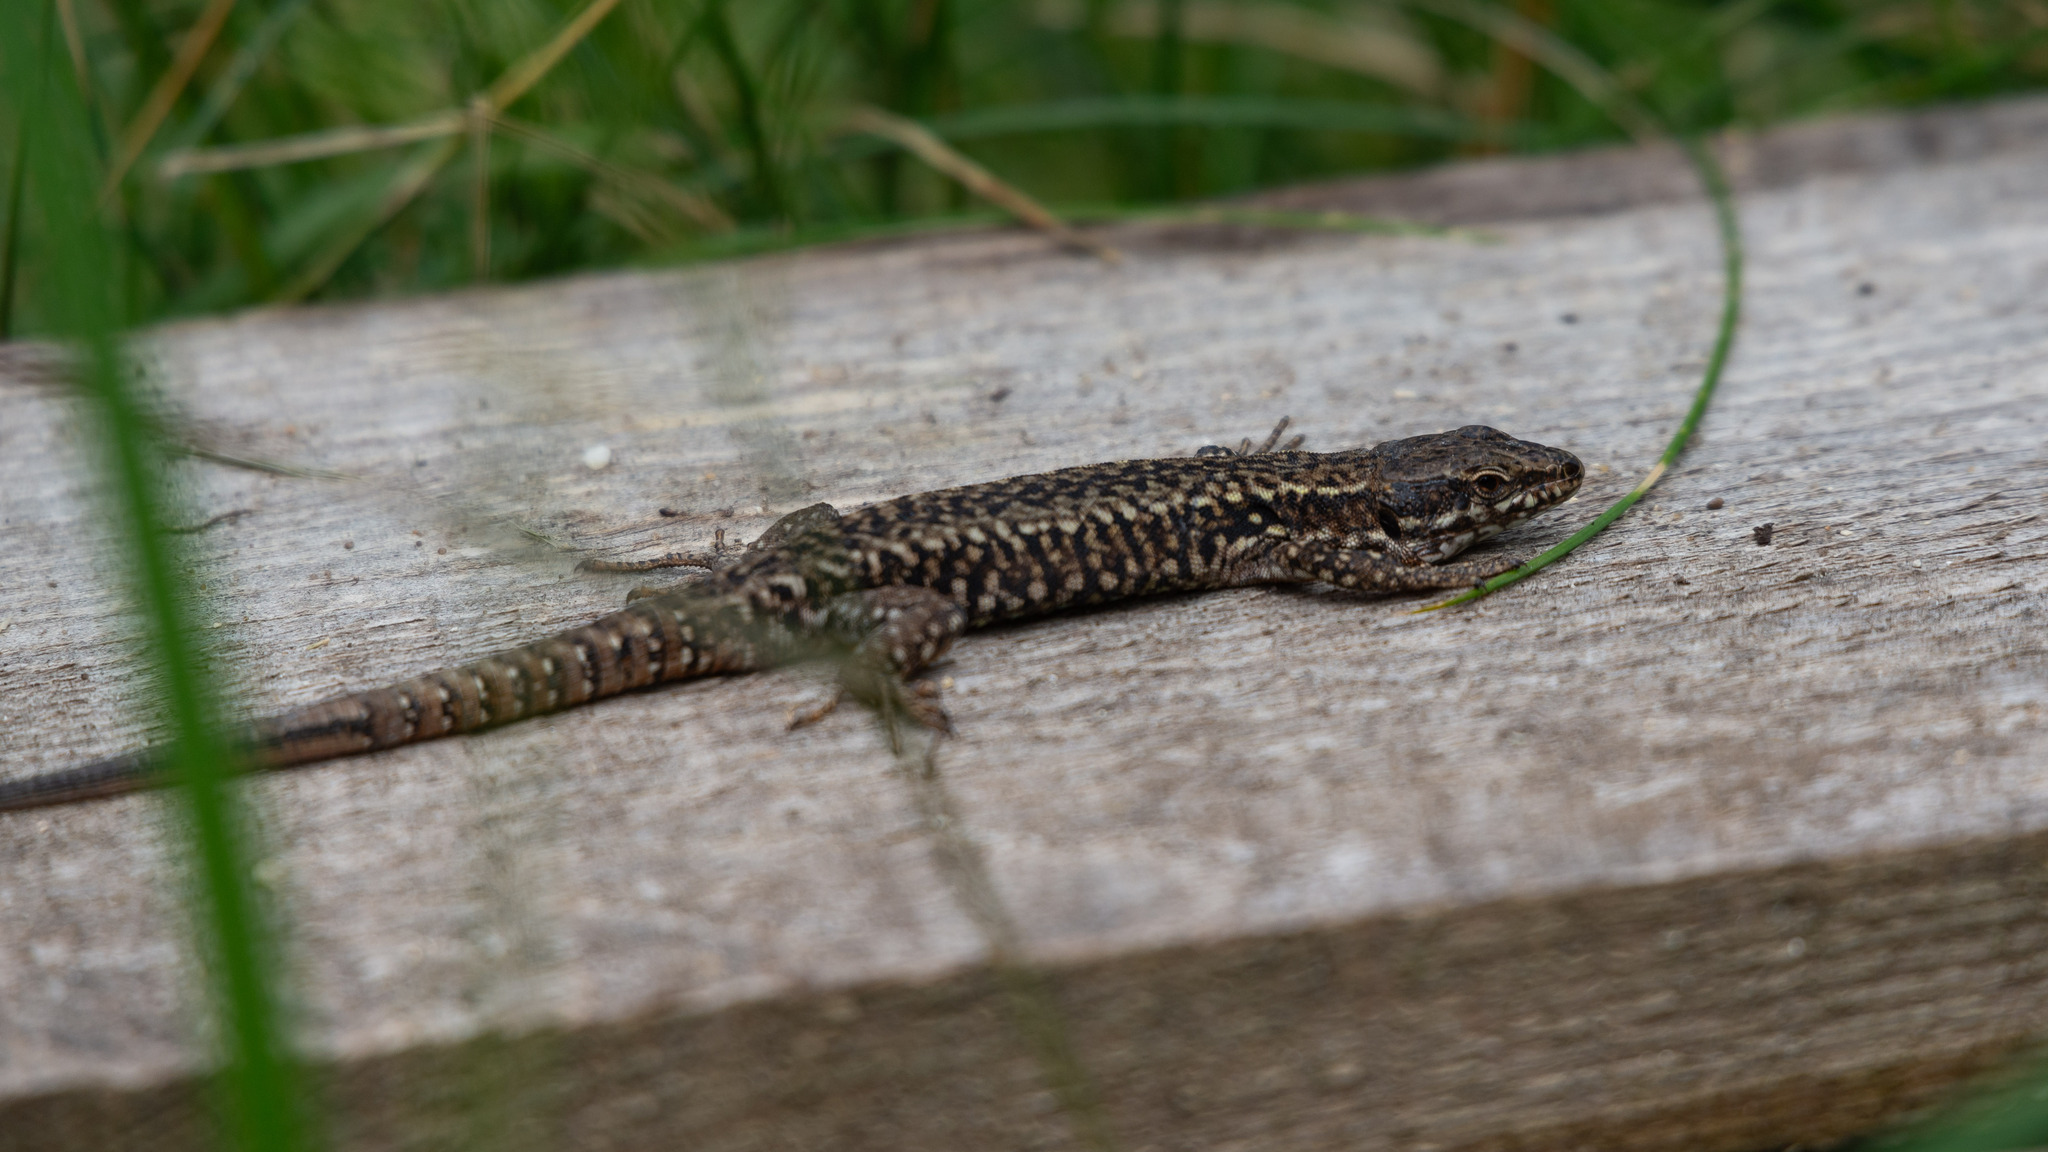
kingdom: Animalia
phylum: Chordata
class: Squamata
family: Lacertidae
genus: Podarcis
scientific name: Podarcis muralis
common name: Common wall lizard
